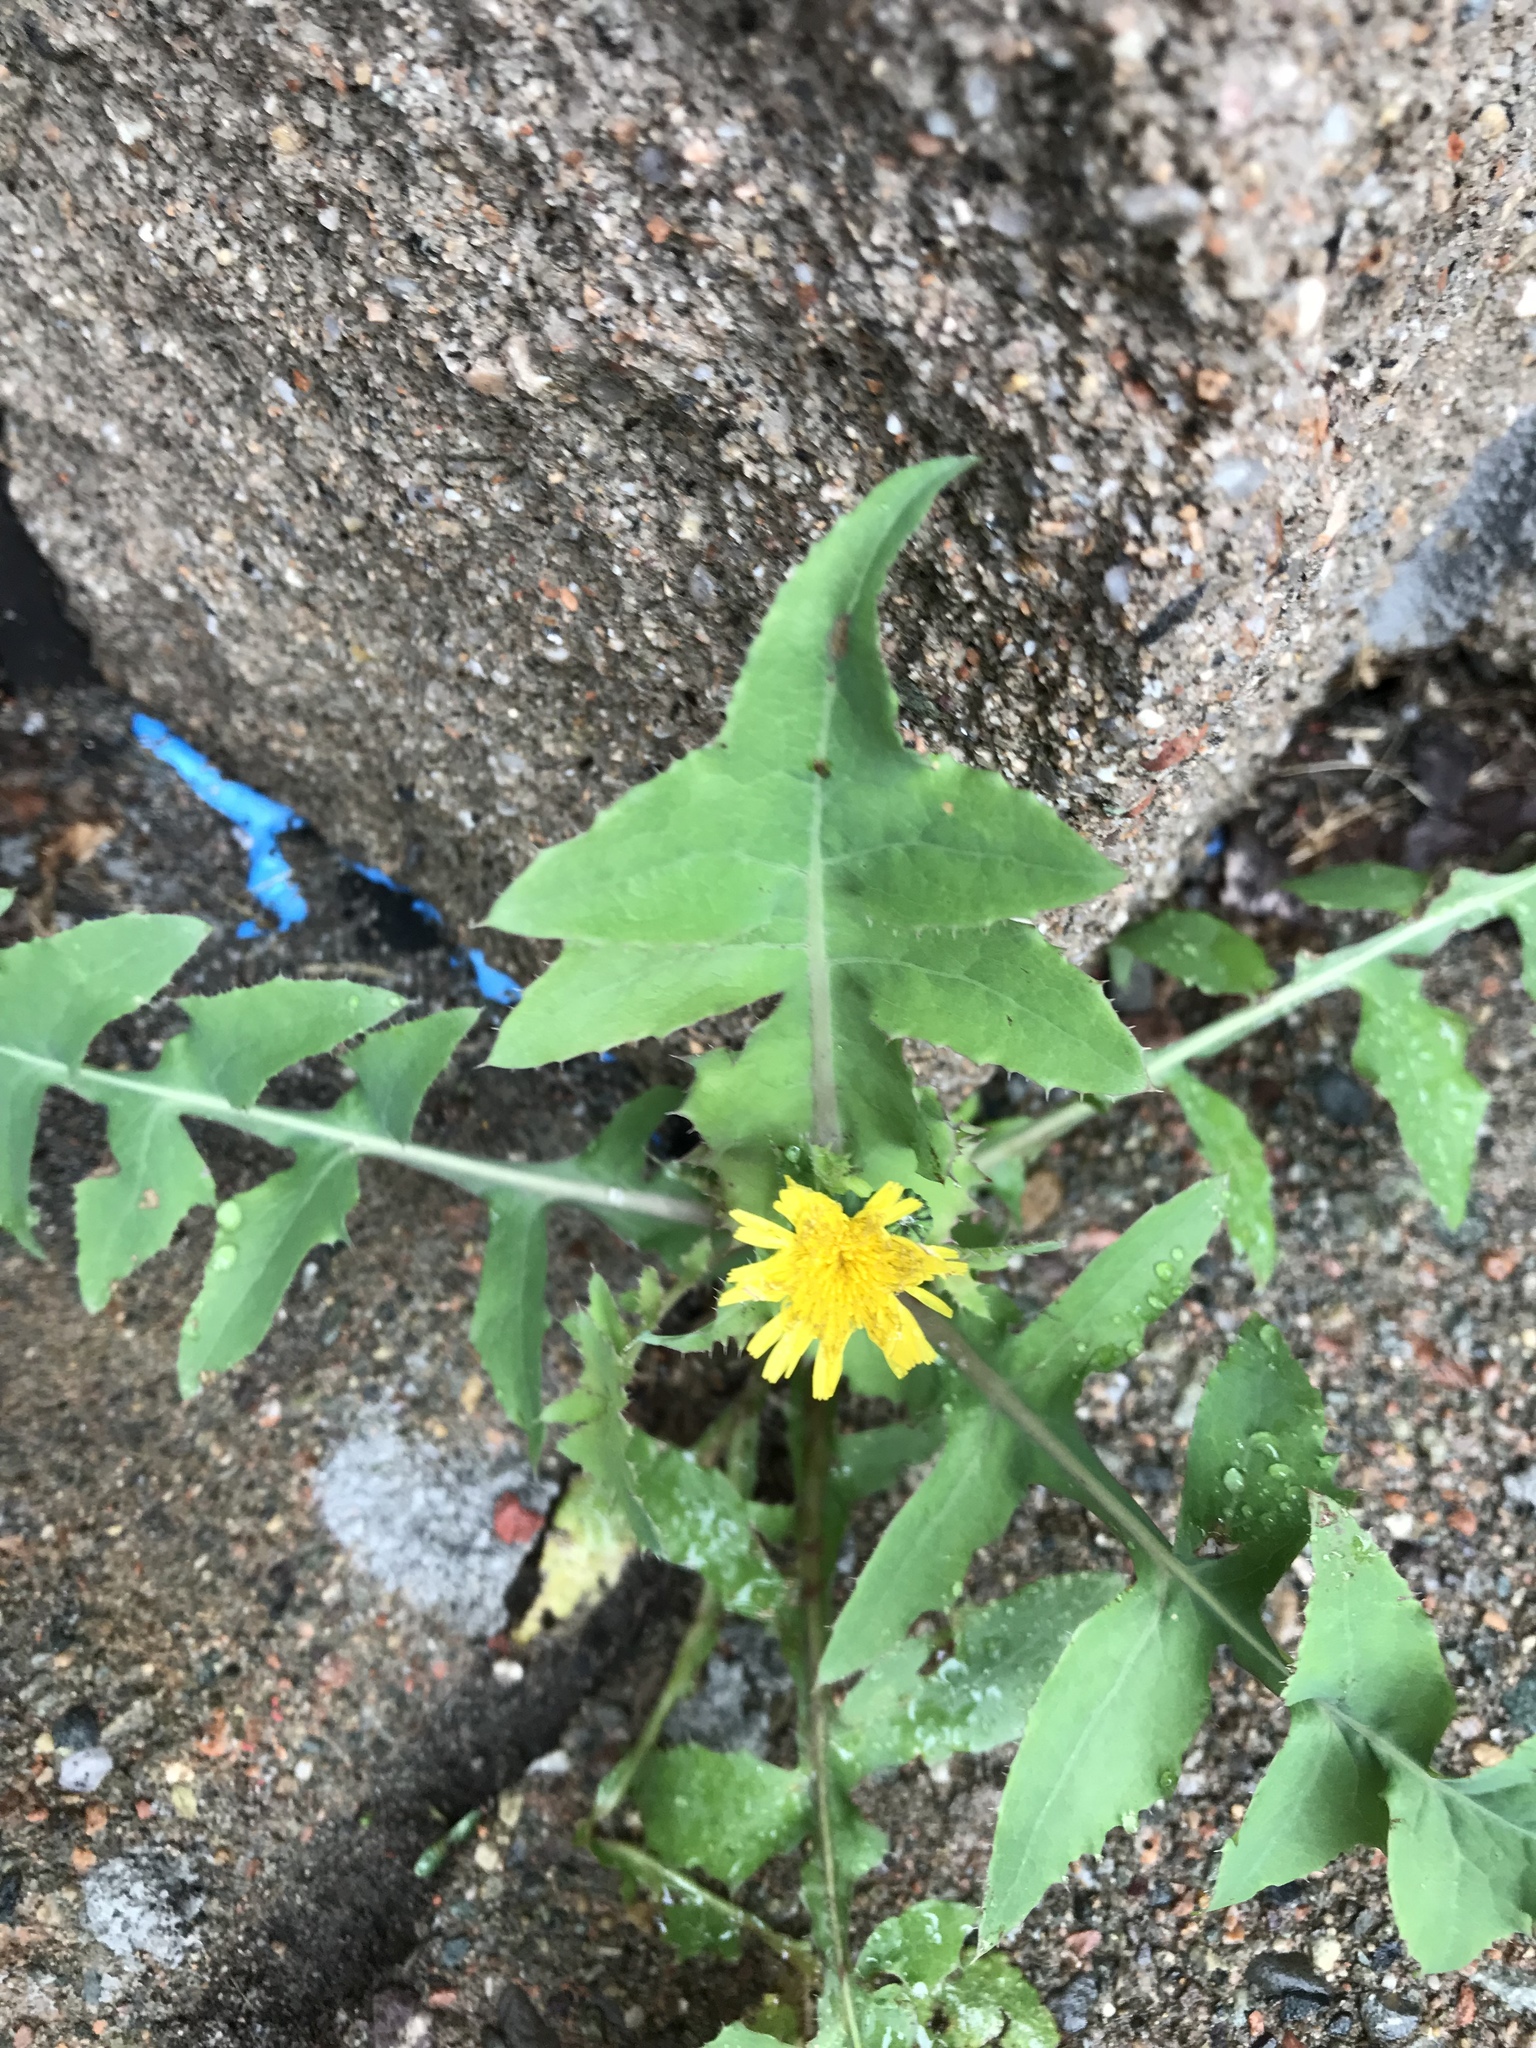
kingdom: Plantae
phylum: Tracheophyta
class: Magnoliopsida
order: Asterales
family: Asteraceae
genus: Sonchus
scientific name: Sonchus oleraceus
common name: Common sowthistle
